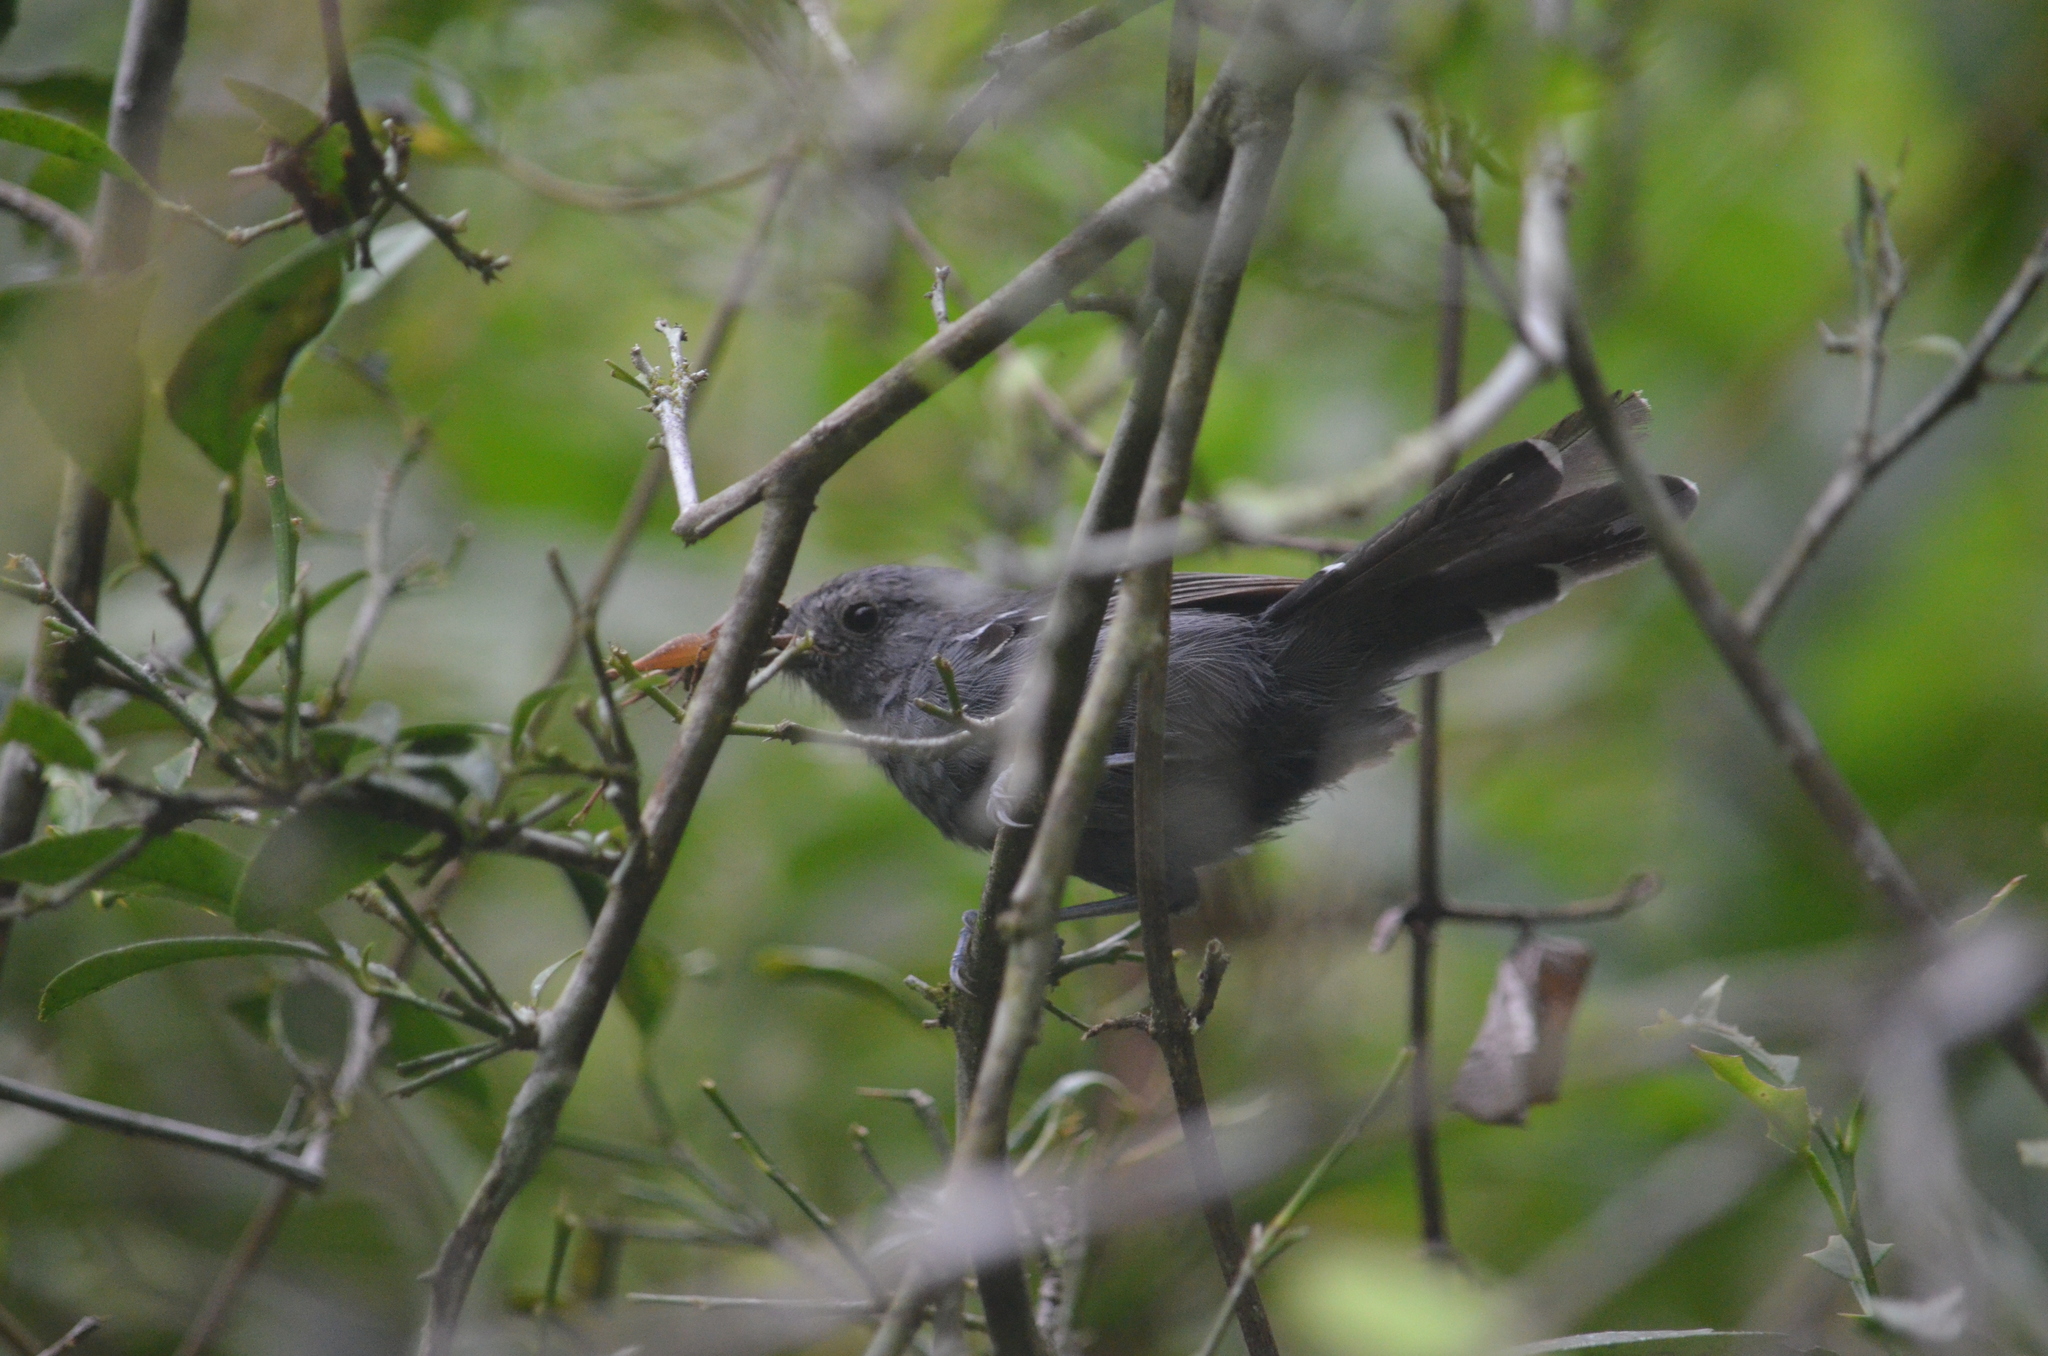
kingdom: Animalia
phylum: Chordata
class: Aves
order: Passeriformes
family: Thamnophilidae
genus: Cercomacra
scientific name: Cercomacra brasiliana
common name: Rio de janeiro antbird
